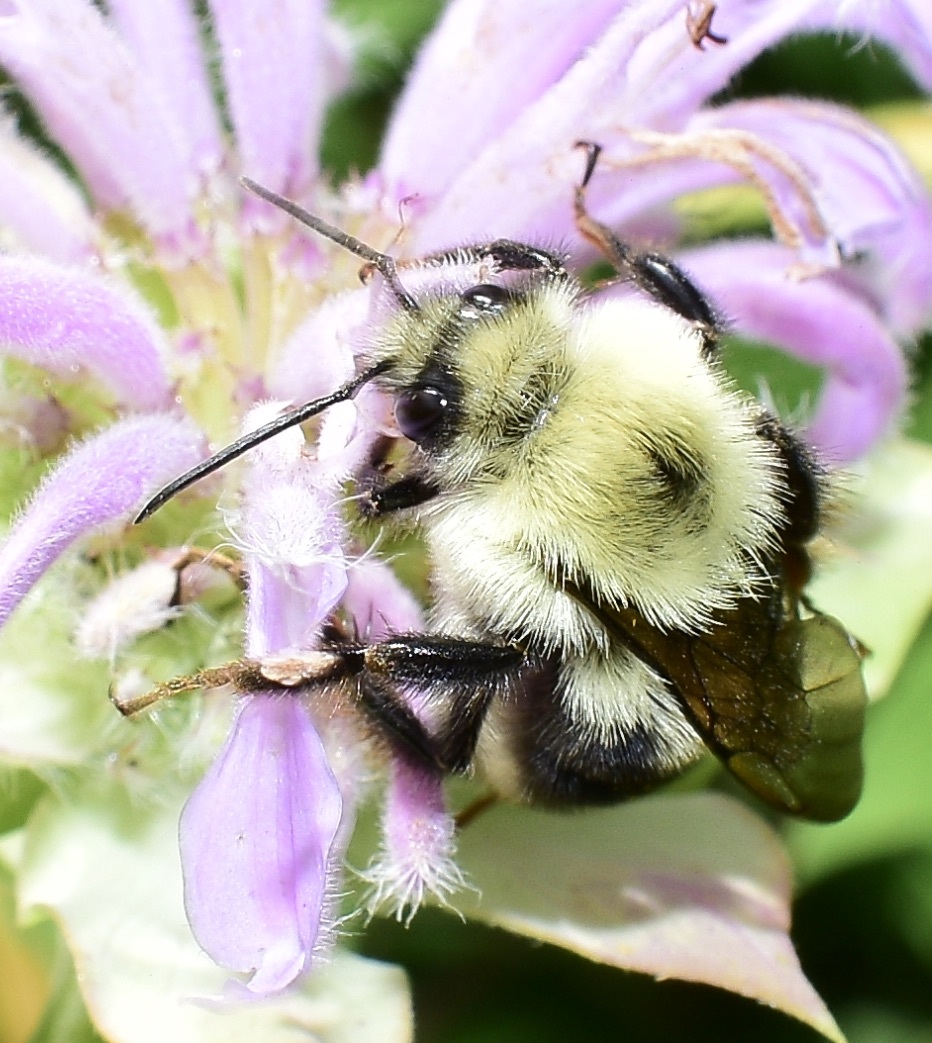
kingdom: Animalia
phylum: Arthropoda
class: Insecta
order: Hymenoptera
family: Apidae
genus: Bombus
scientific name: Bombus bimaculatus
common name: Two-spotted bumble bee
